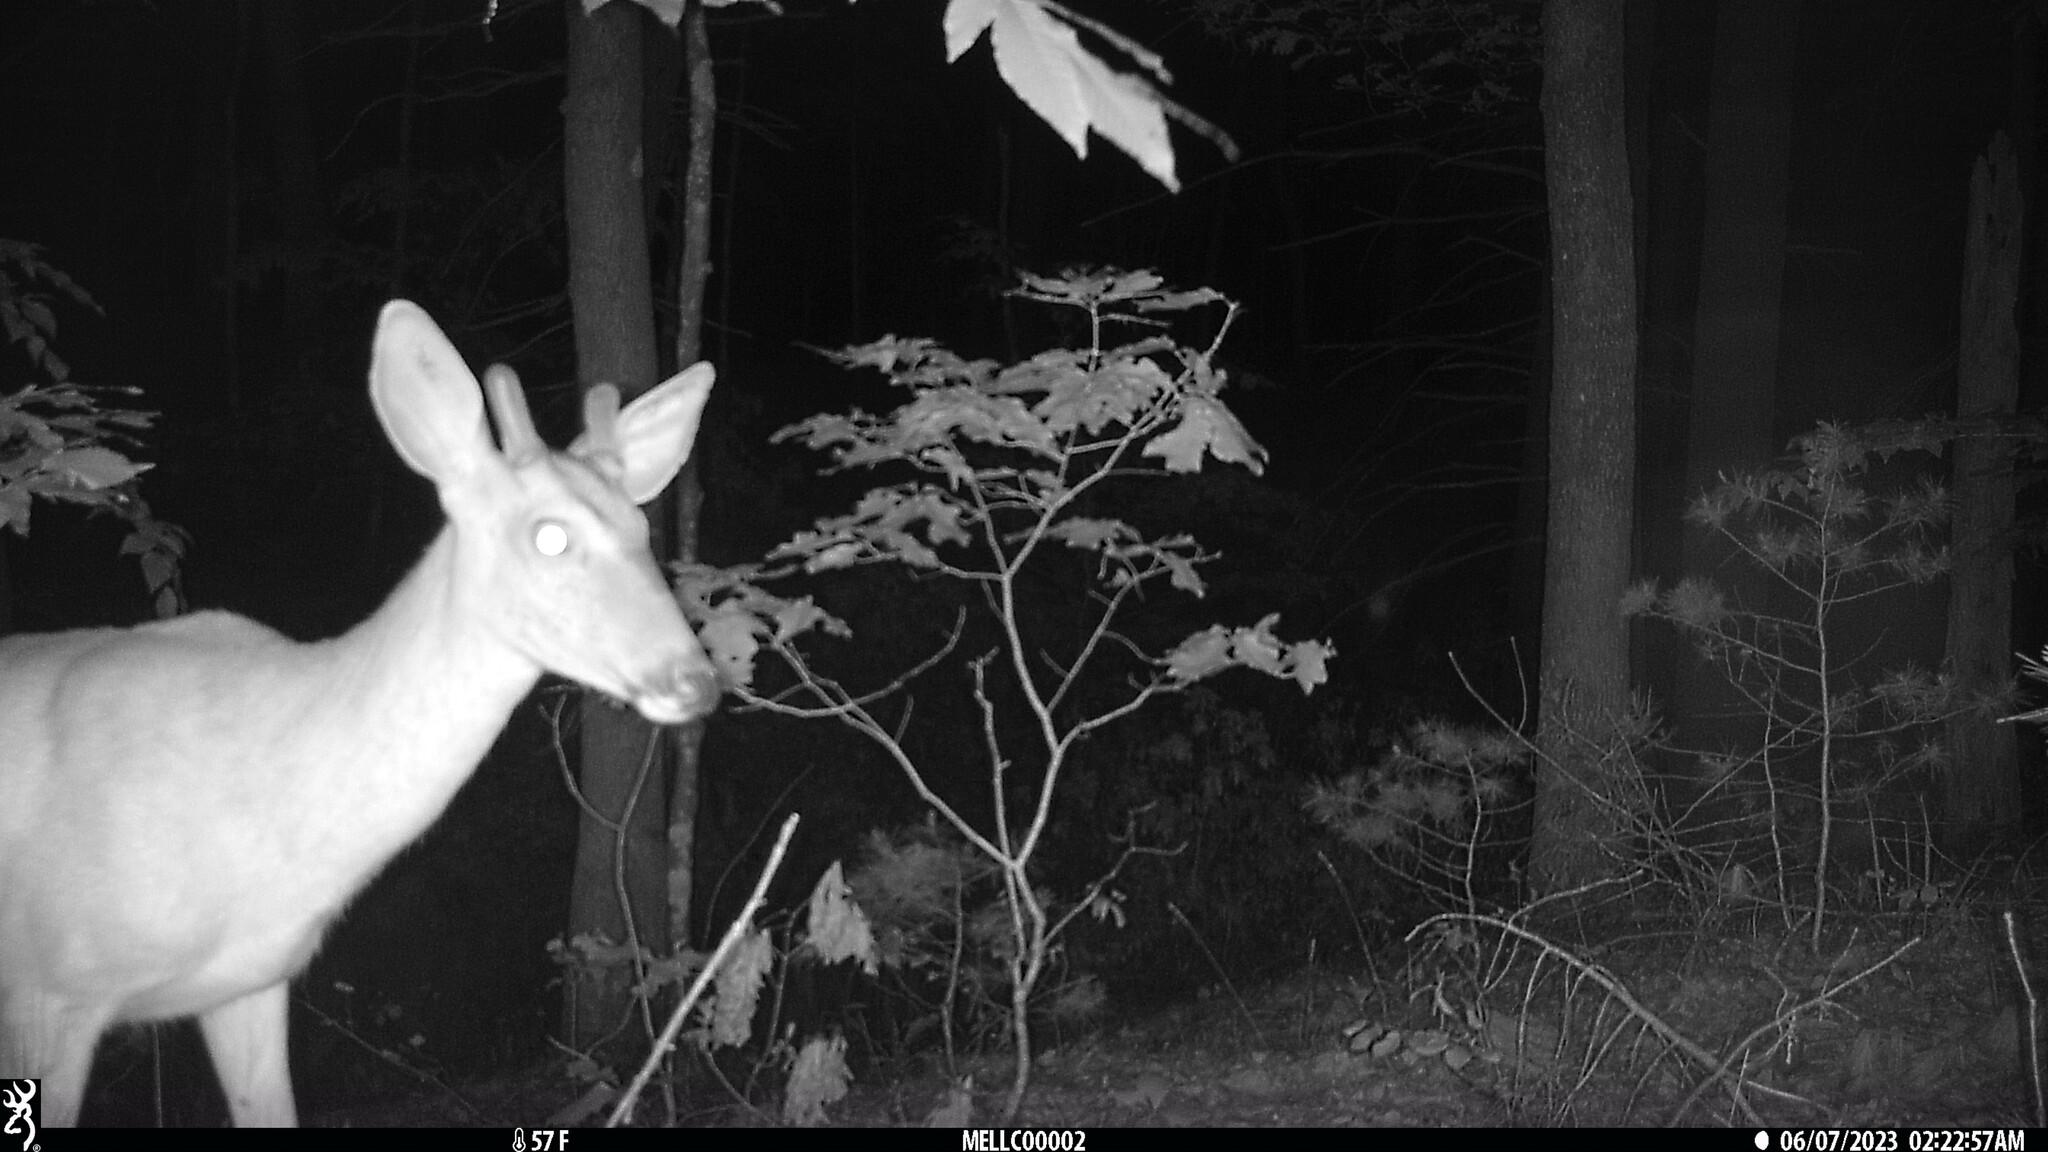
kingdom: Animalia
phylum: Chordata
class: Mammalia
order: Artiodactyla
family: Cervidae
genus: Odocoileus
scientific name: Odocoileus virginianus
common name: White-tailed deer
